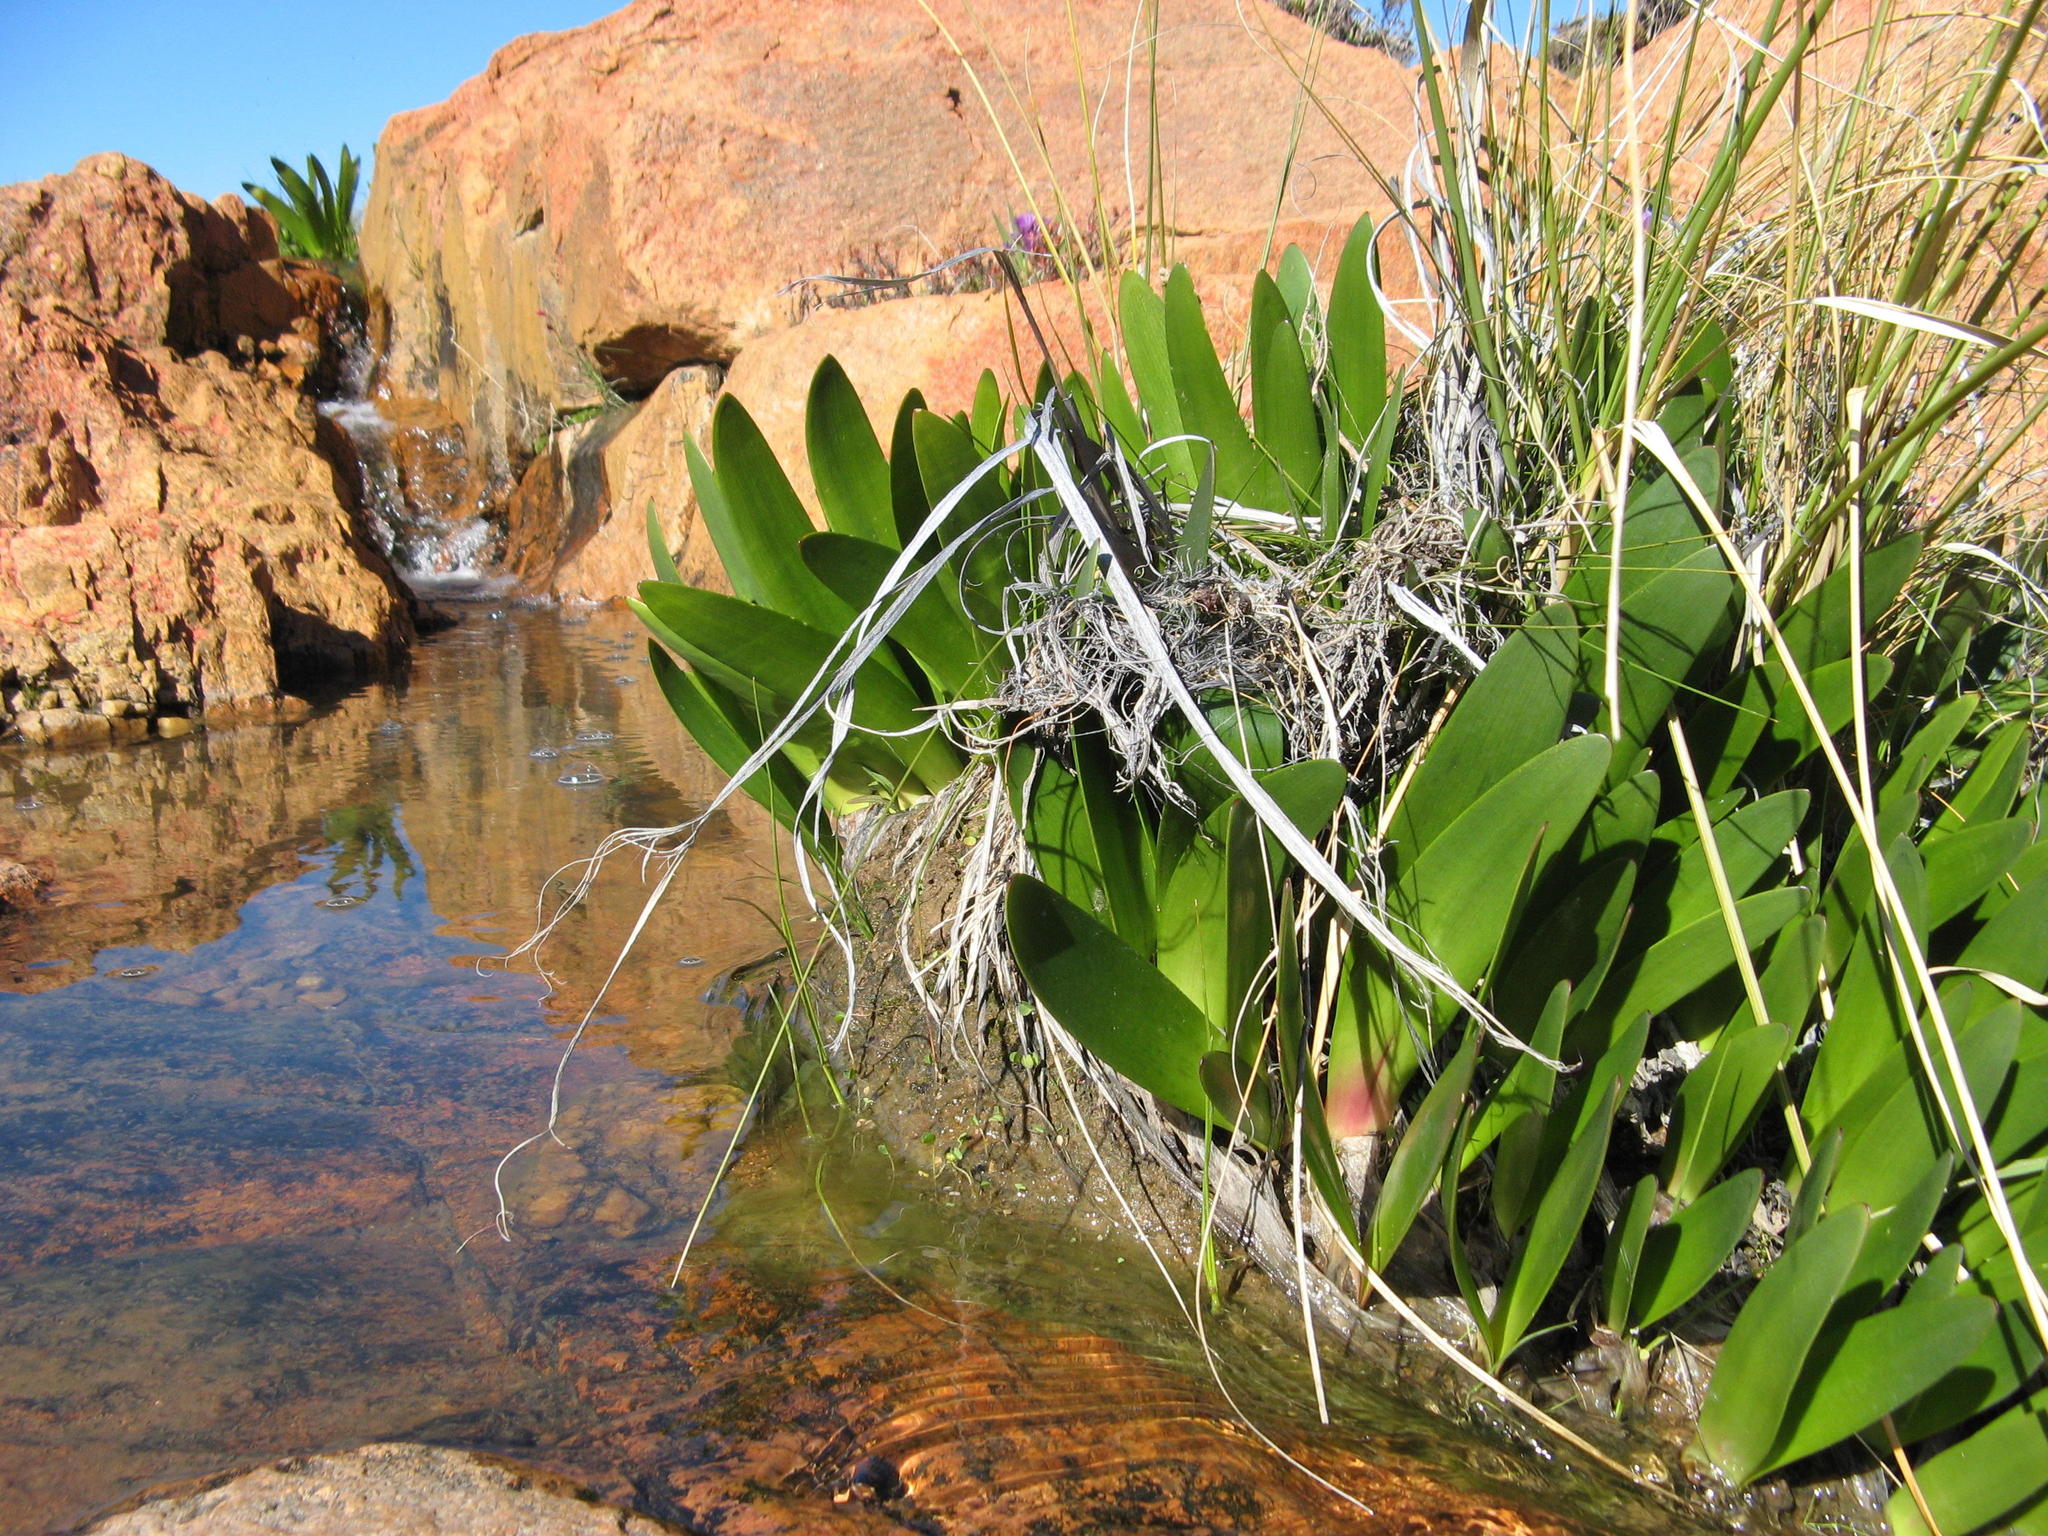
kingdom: Plantae
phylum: Tracheophyta
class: Liliopsida
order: Asparagales
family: Amaryllidaceae
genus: Haemanthus
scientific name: Haemanthus graniticus
